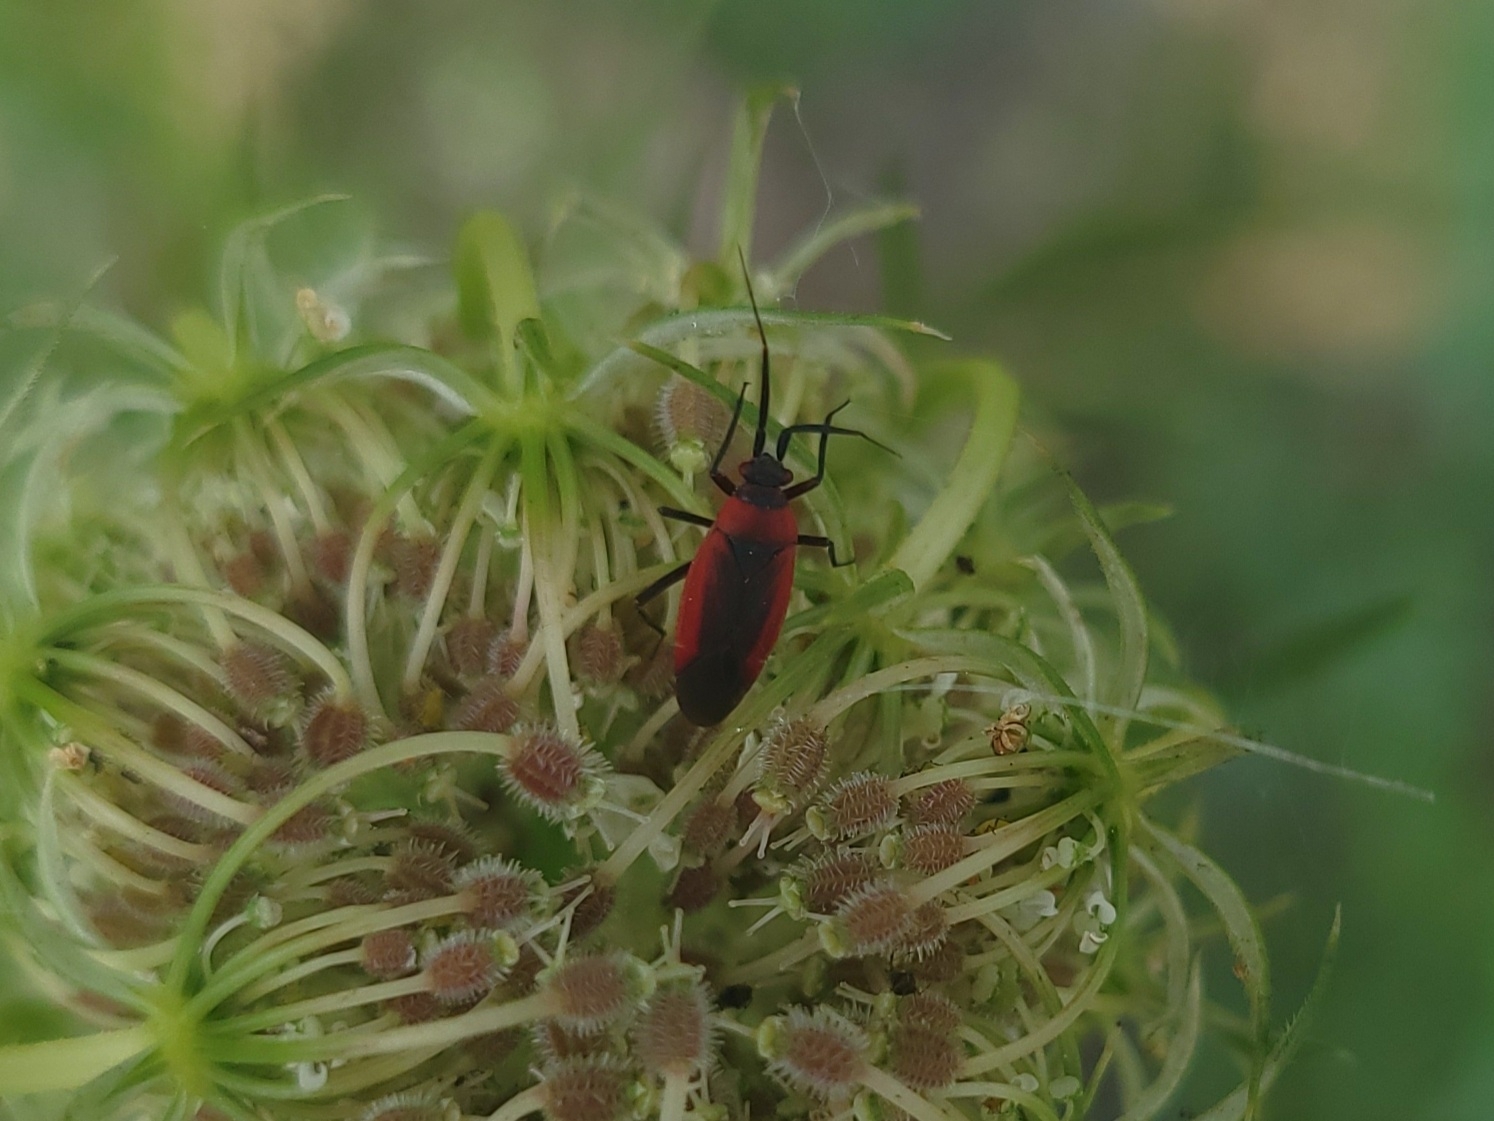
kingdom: Animalia
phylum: Arthropoda
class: Insecta
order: Hemiptera
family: Miridae
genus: Lopidea
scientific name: Lopidea instabilis
